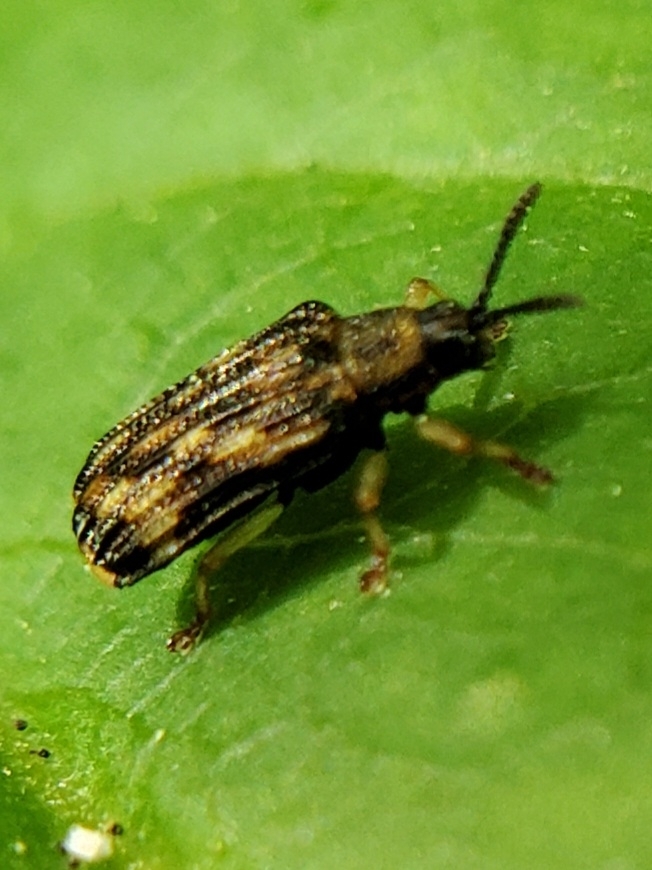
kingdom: Animalia
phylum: Arthropoda
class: Insecta
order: Coleoptera
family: Chrysomelidae
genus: Sumitrosis
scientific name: Sumitrosis inaequalis
